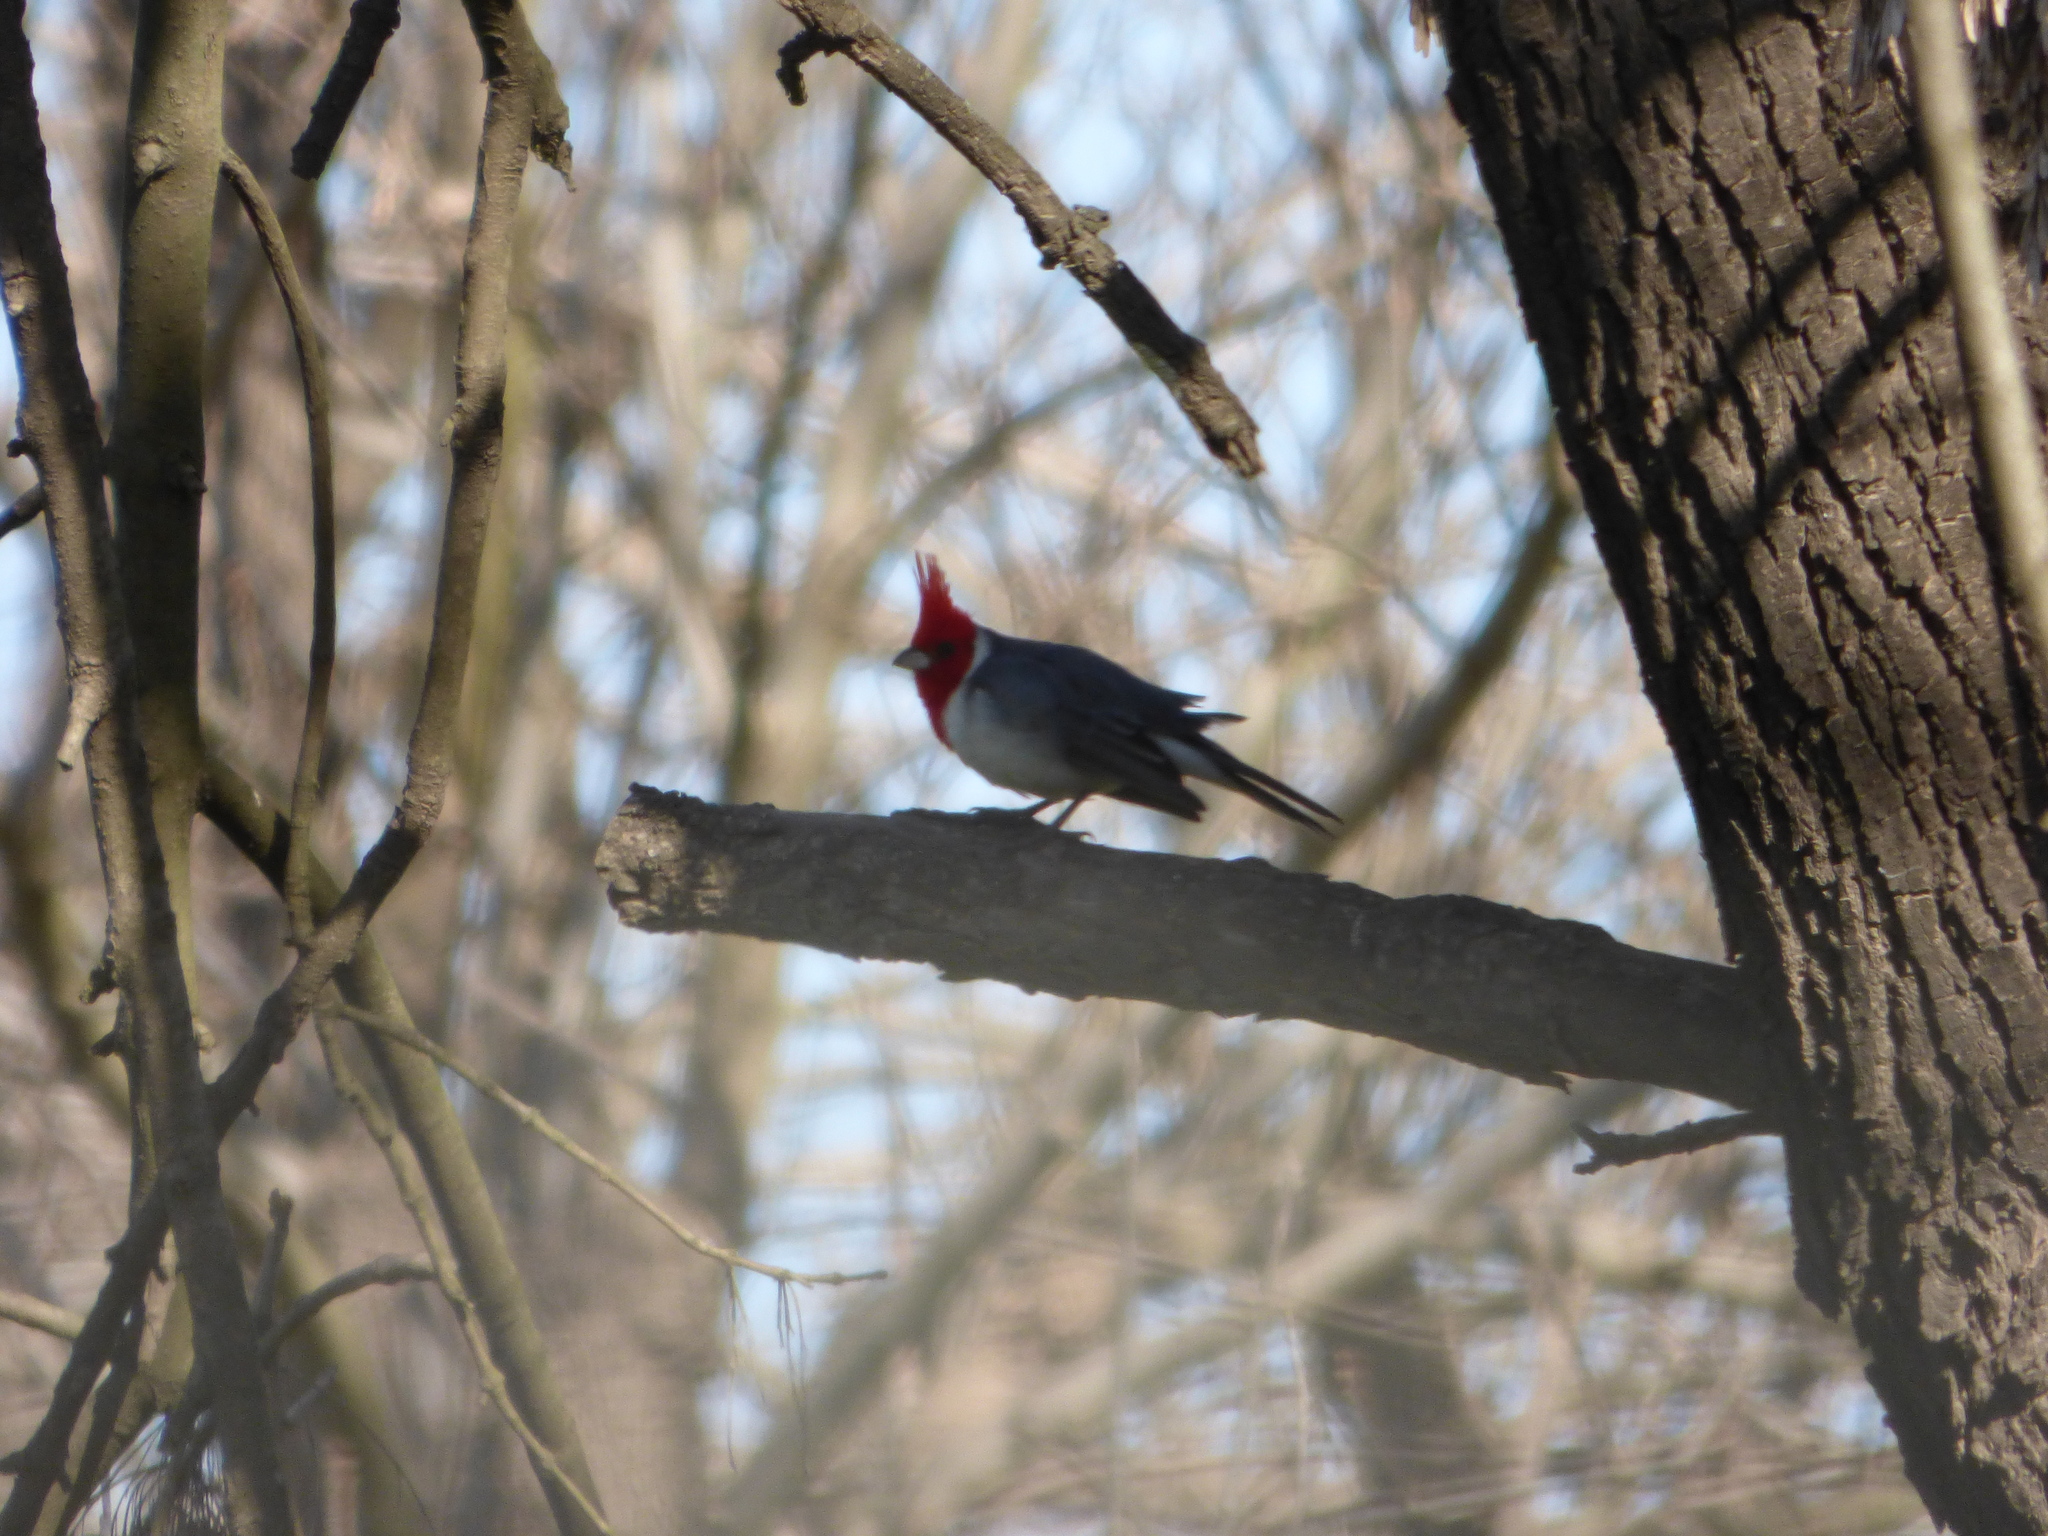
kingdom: Animalia
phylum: Chordata
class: Aves
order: Passeriformes
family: Thraupidae
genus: Paroaria
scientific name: Paroaria coronata
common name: Red-crested cardinal
